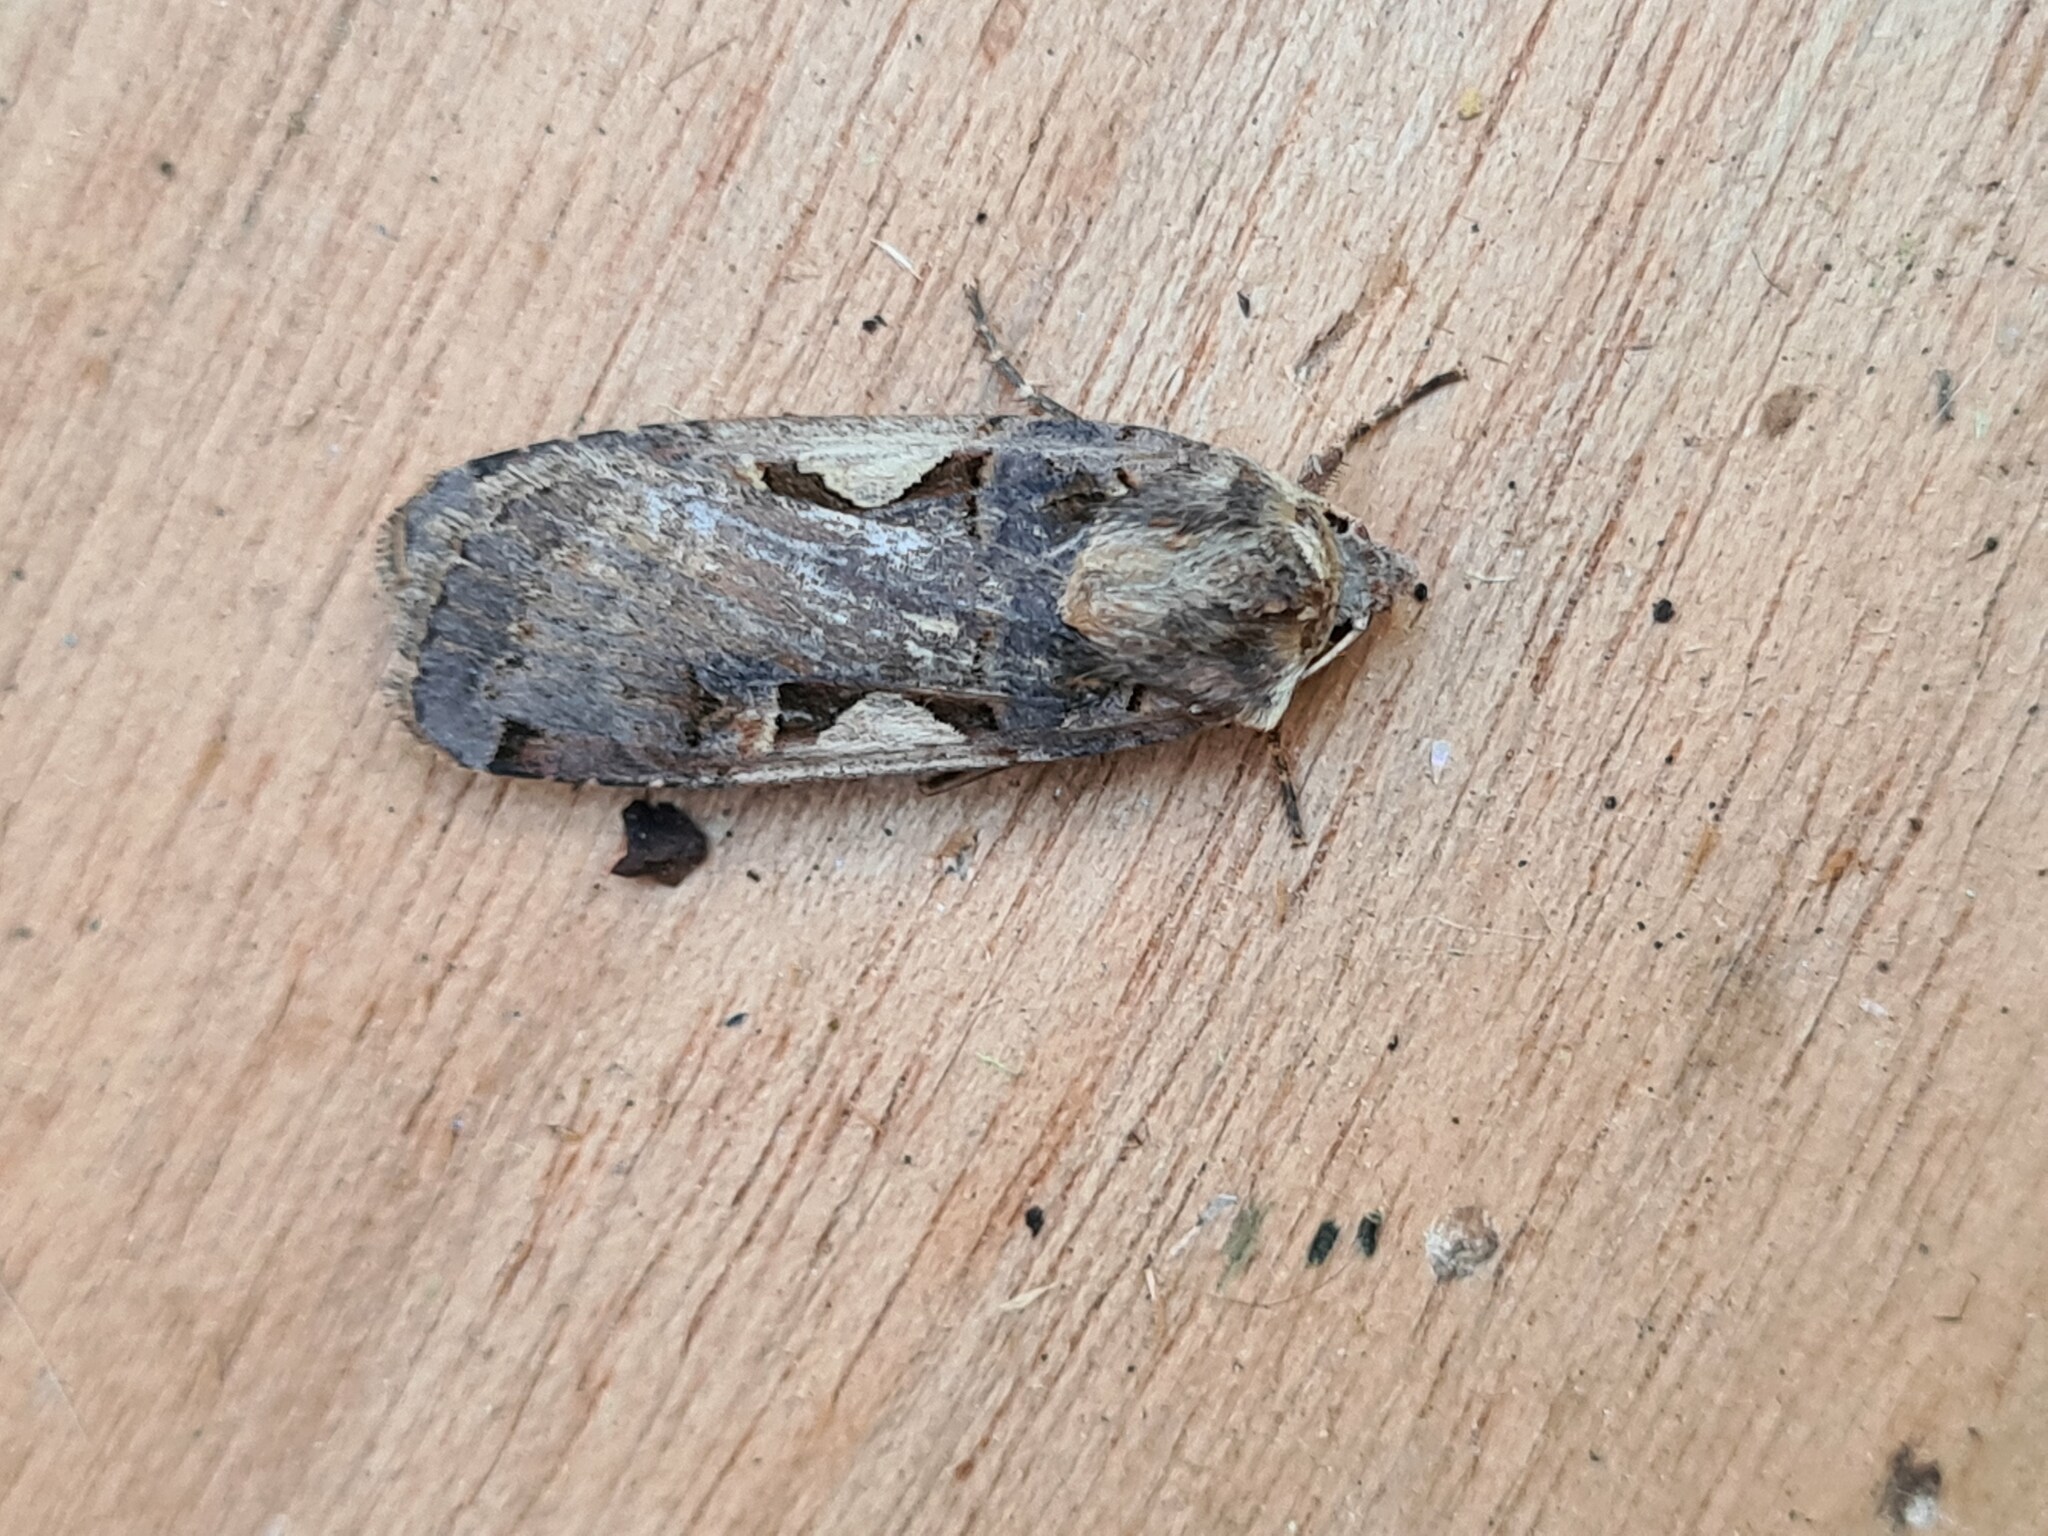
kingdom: Animalia
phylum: Arthropoda
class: Insecta
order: Lepidoptera
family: Noctuidae
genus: Xestia
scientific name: Xestia c-nigrum
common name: Setaceous hebrew character
